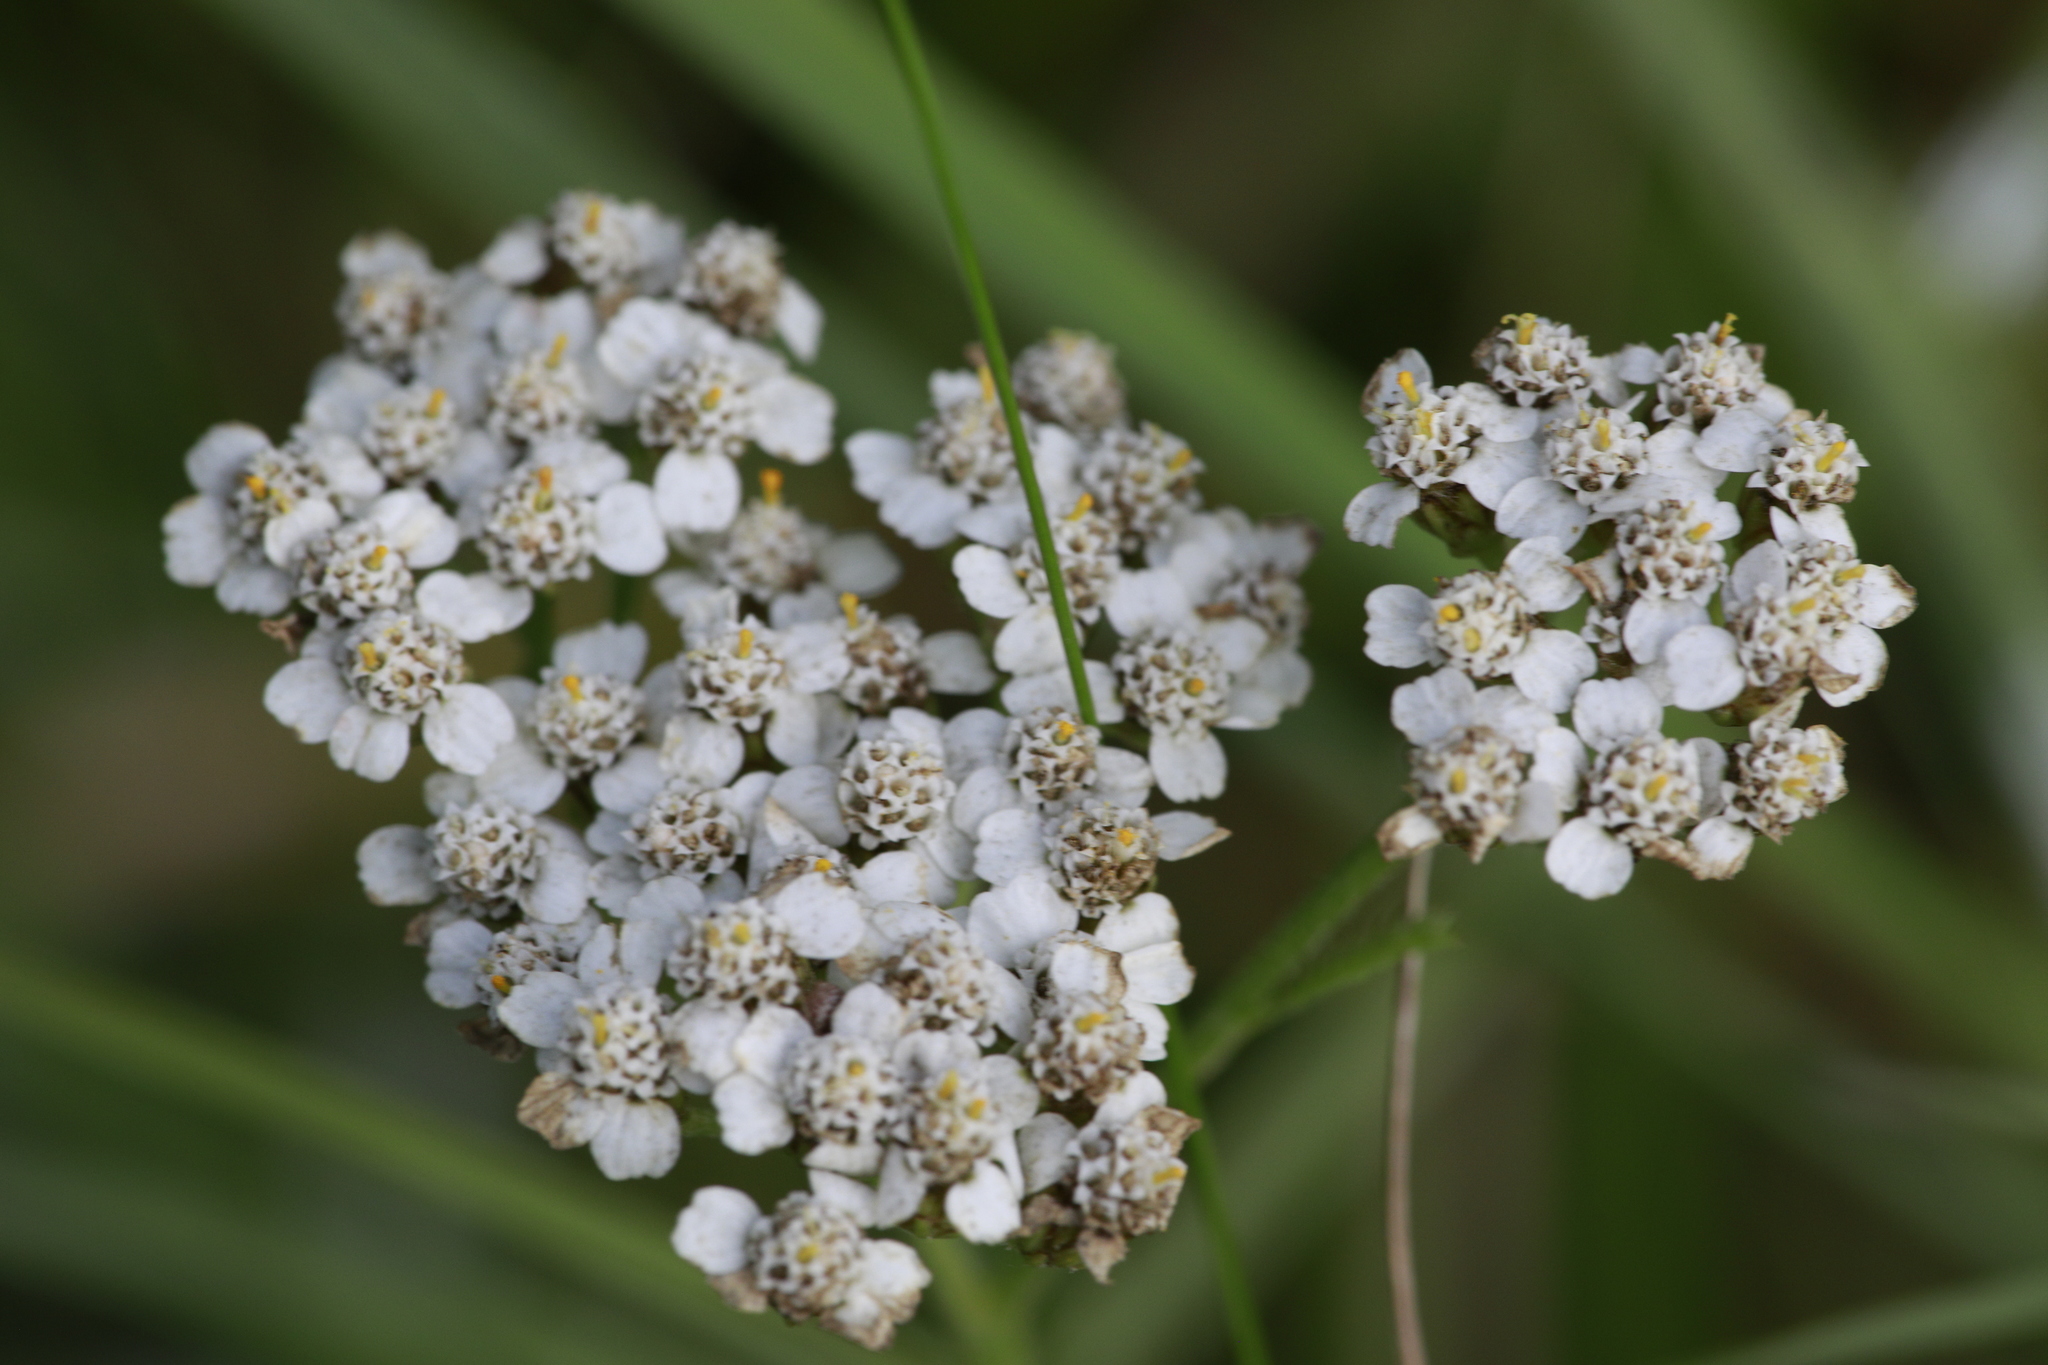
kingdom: Plantae
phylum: Tracheophyta
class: Magnoliopsida
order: Asterales
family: Asteraceae
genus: Achillea
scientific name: Achillea millefolium
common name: Yarrow
